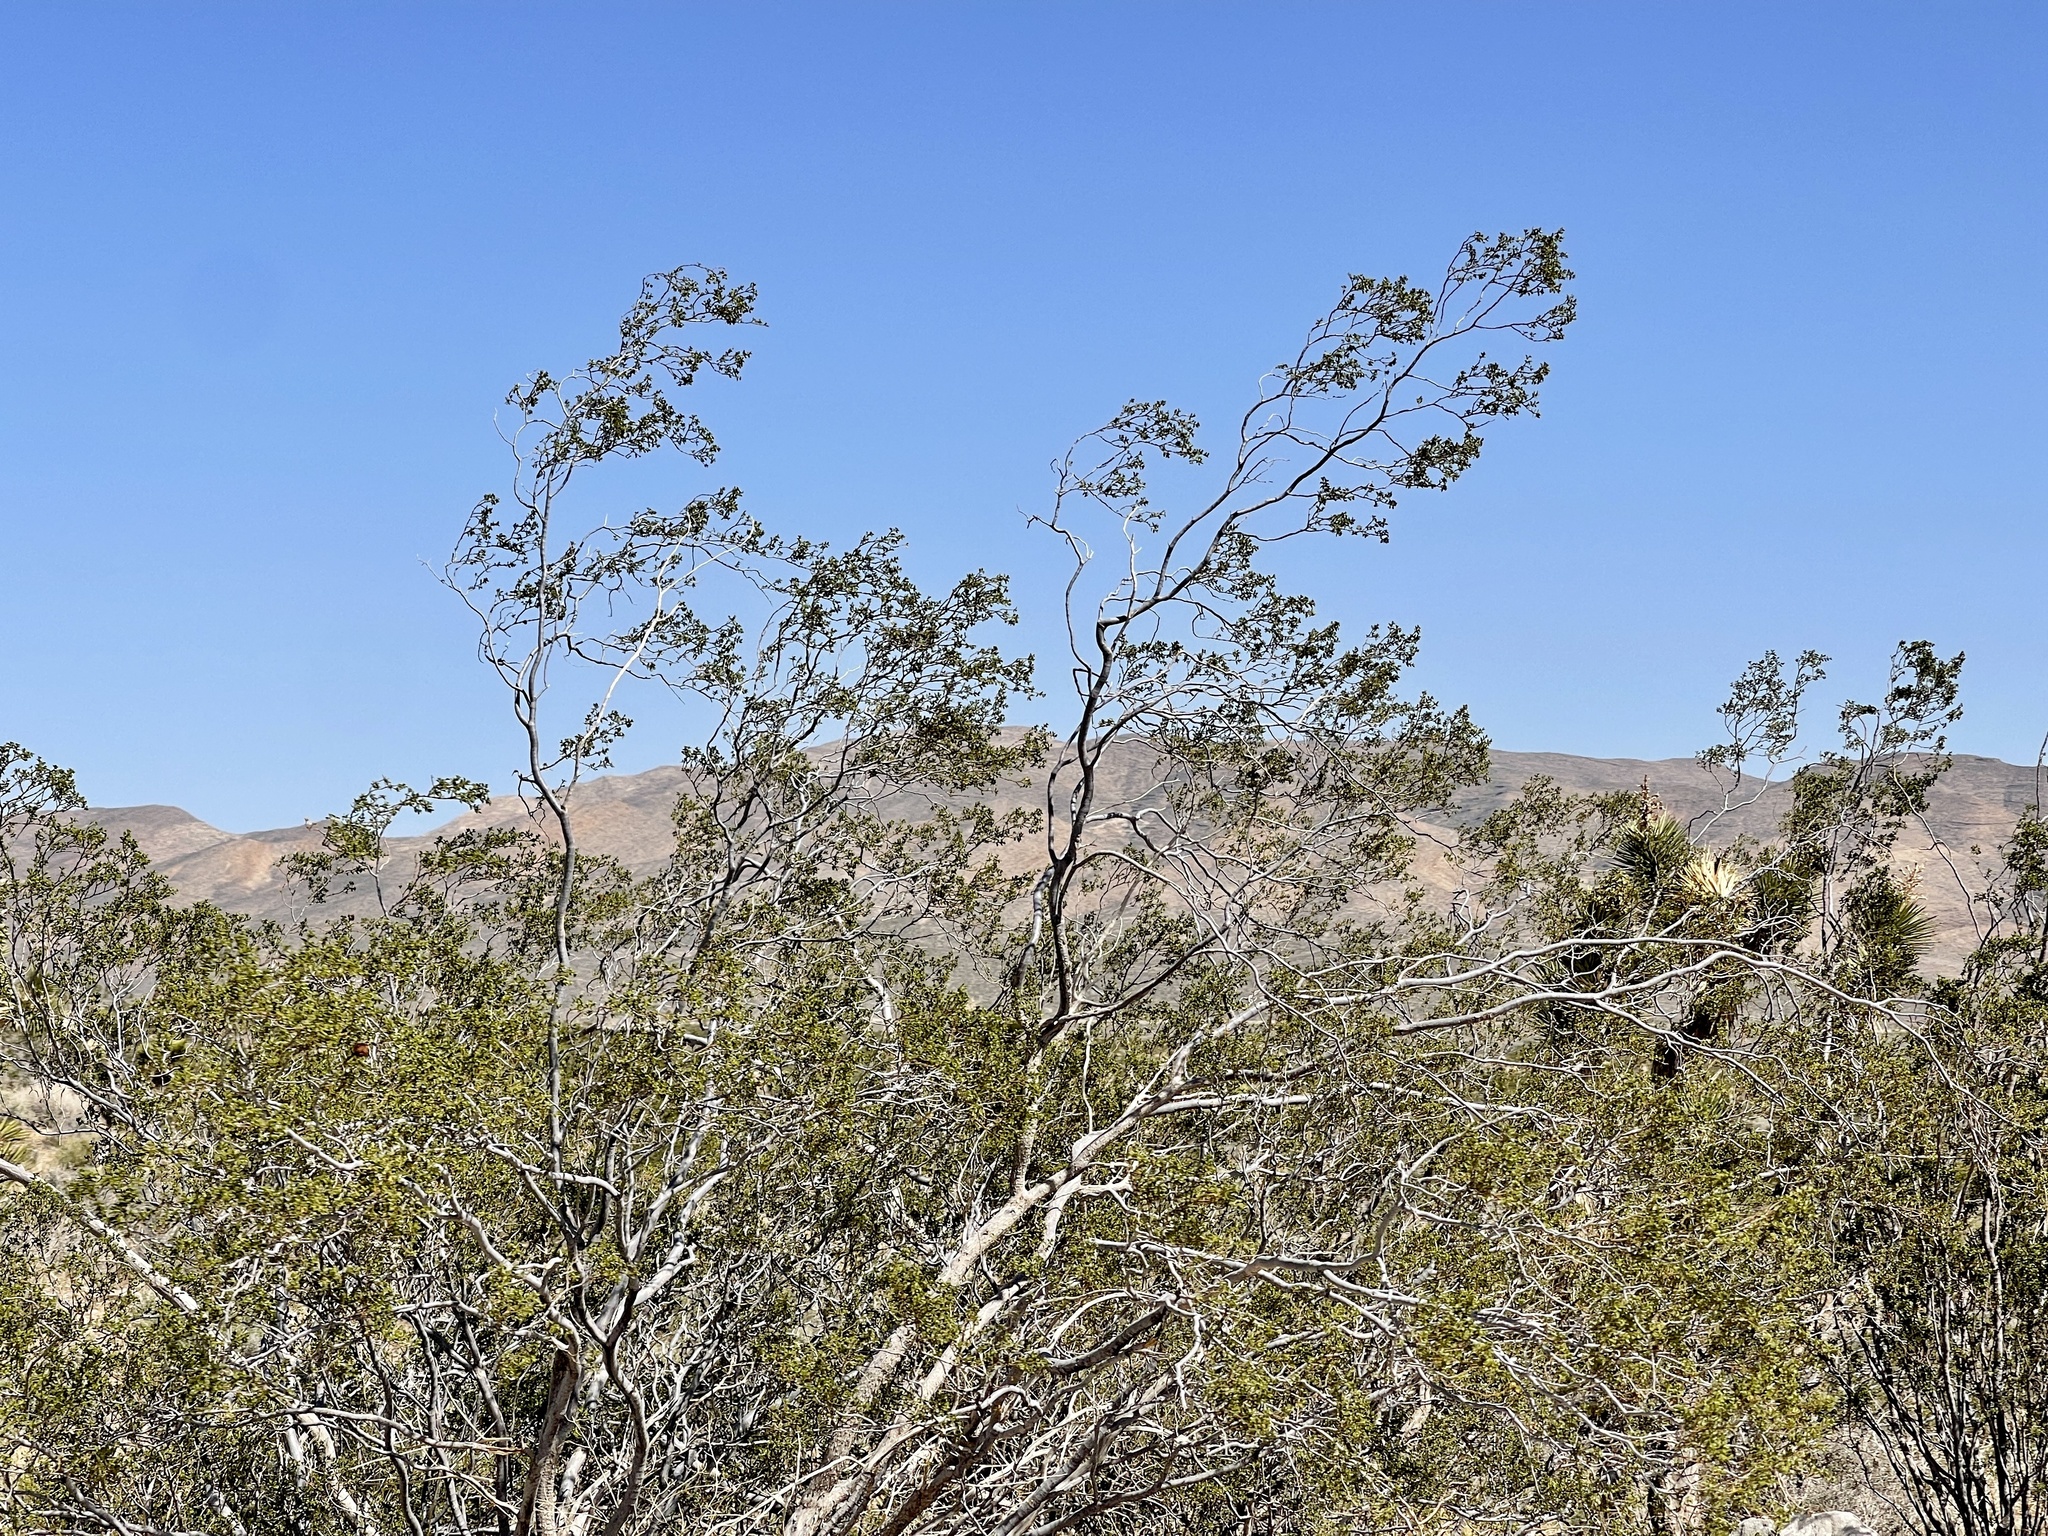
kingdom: Plantae
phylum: Tracheophyta
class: Magnoliopsida
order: Zygophyllales
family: Zygophyllaceae
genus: Larrea
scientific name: Larrea tridentata
